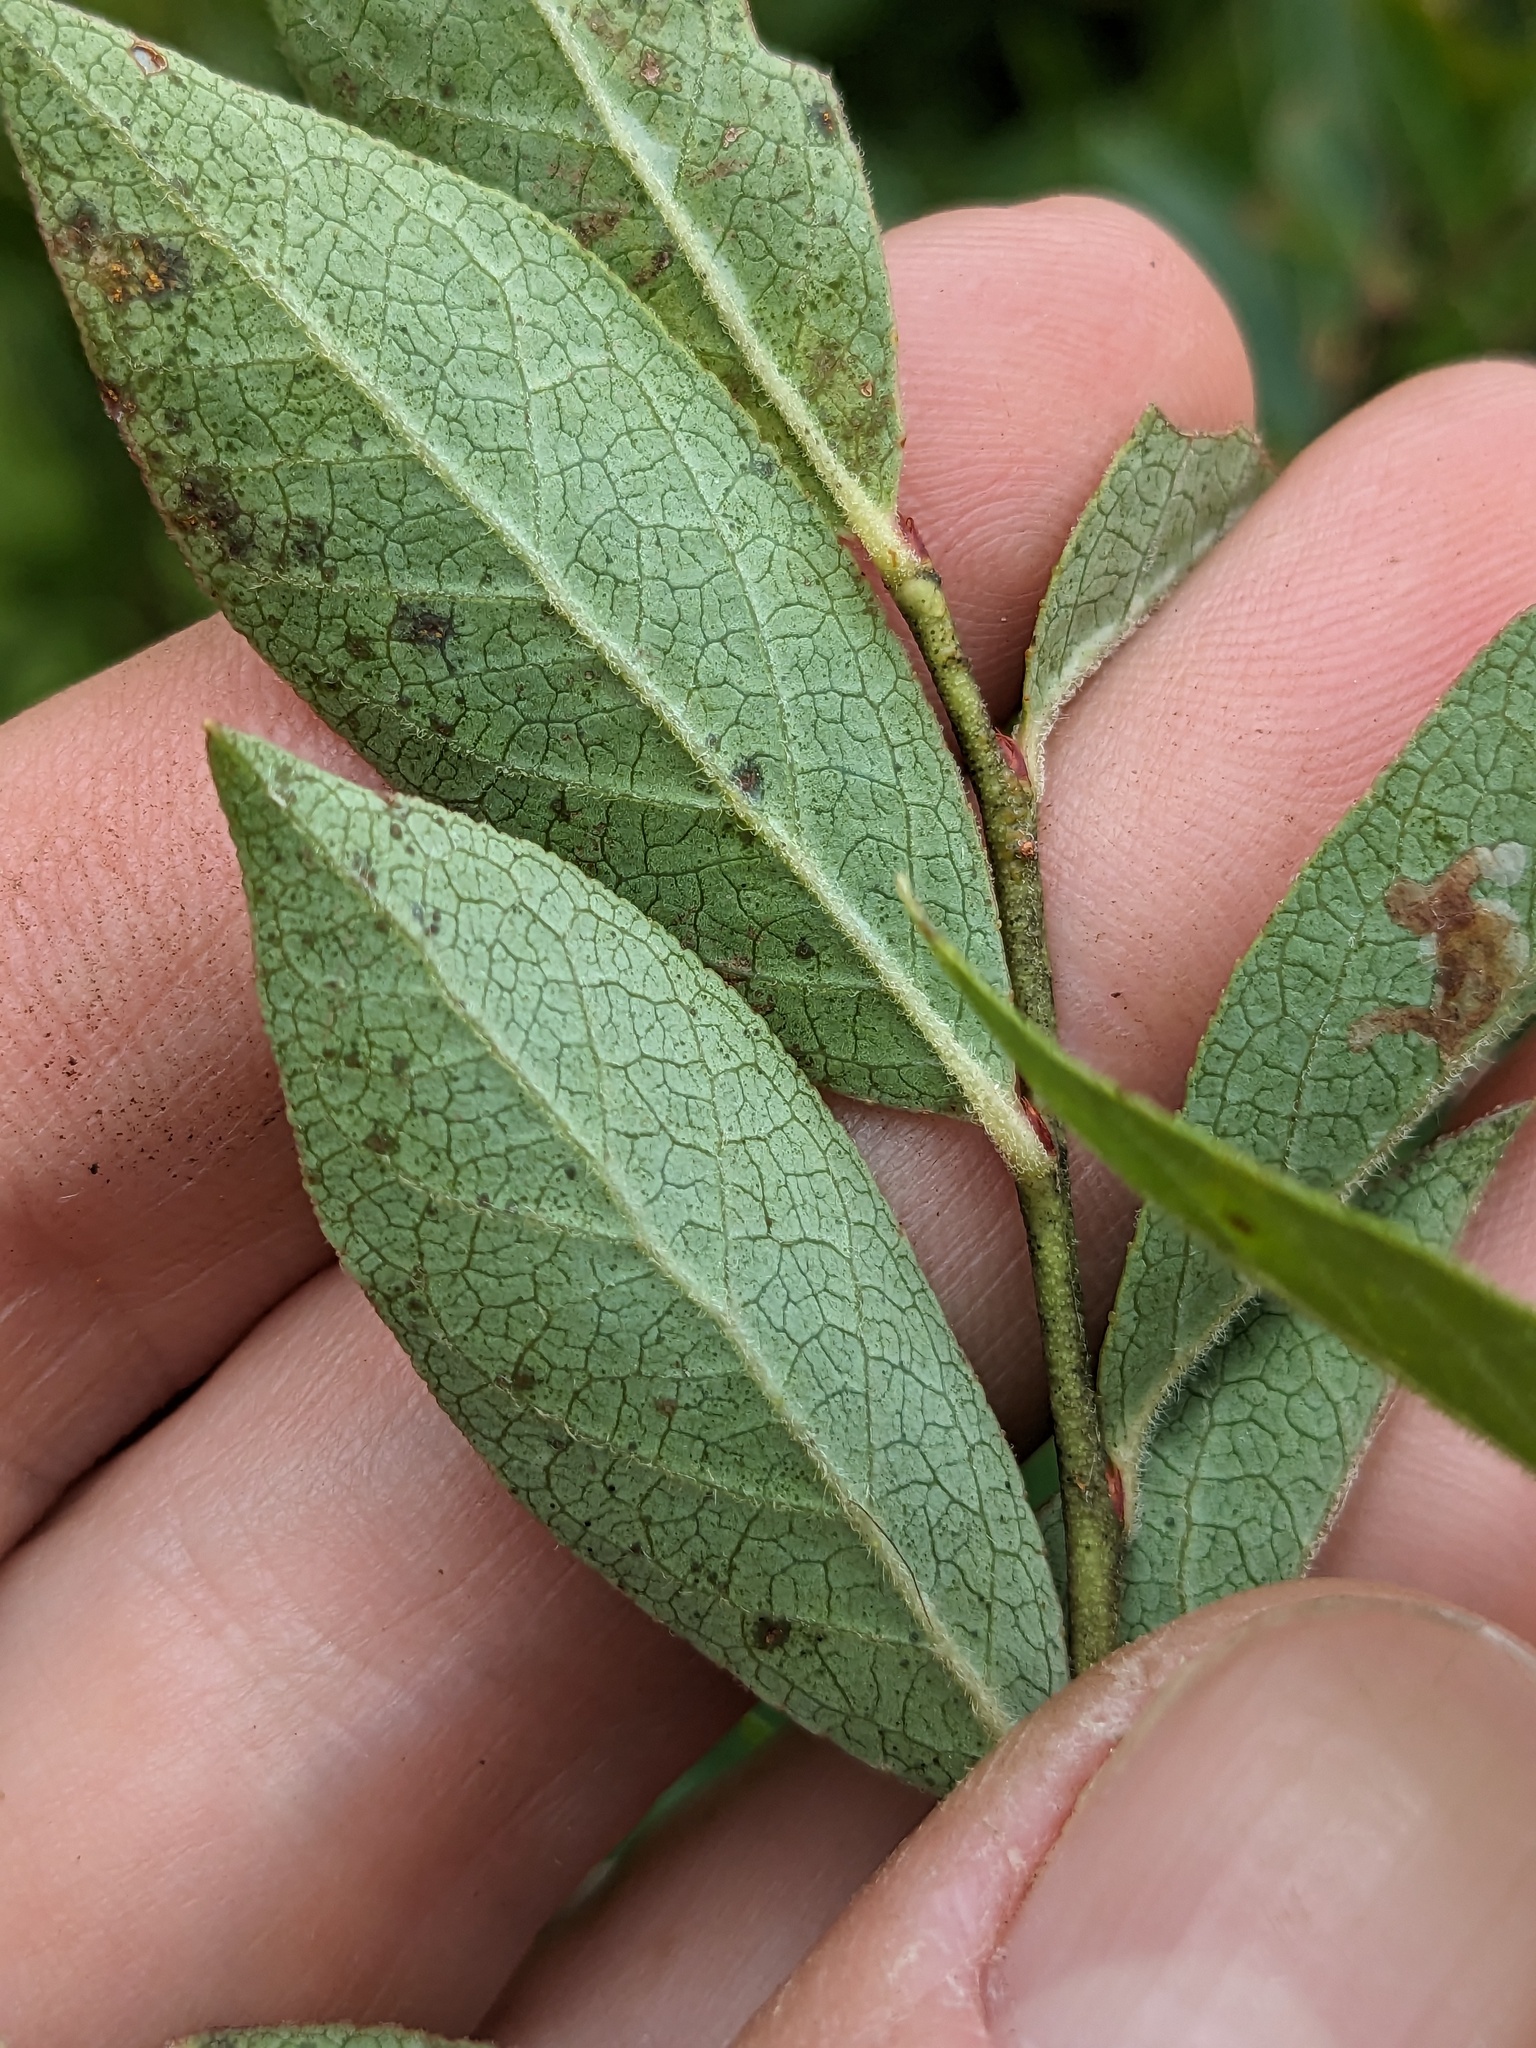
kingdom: Plantae
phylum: Tracheophyta
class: Magnoliopsida
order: Ericales
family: Ericaceae
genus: Vaccinium
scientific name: Vaccinium corymbosum
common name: Blueberry
